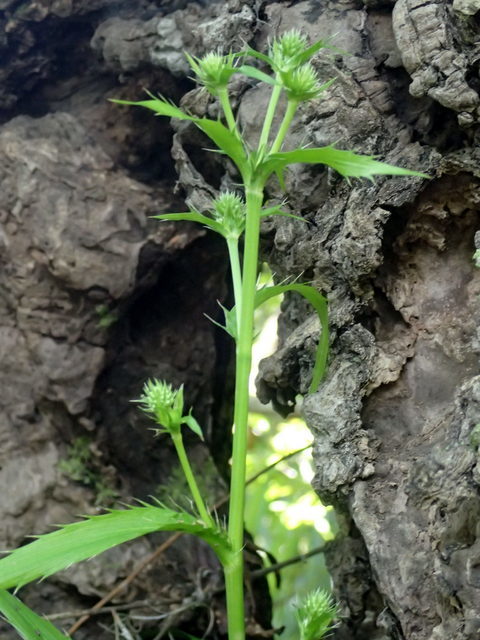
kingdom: Plantae
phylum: Tracheophyta
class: Magnoliopsida
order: Apiales
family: Apiaceae
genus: Eryngium
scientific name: Eryngium yuccifolium
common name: Button eryngo
